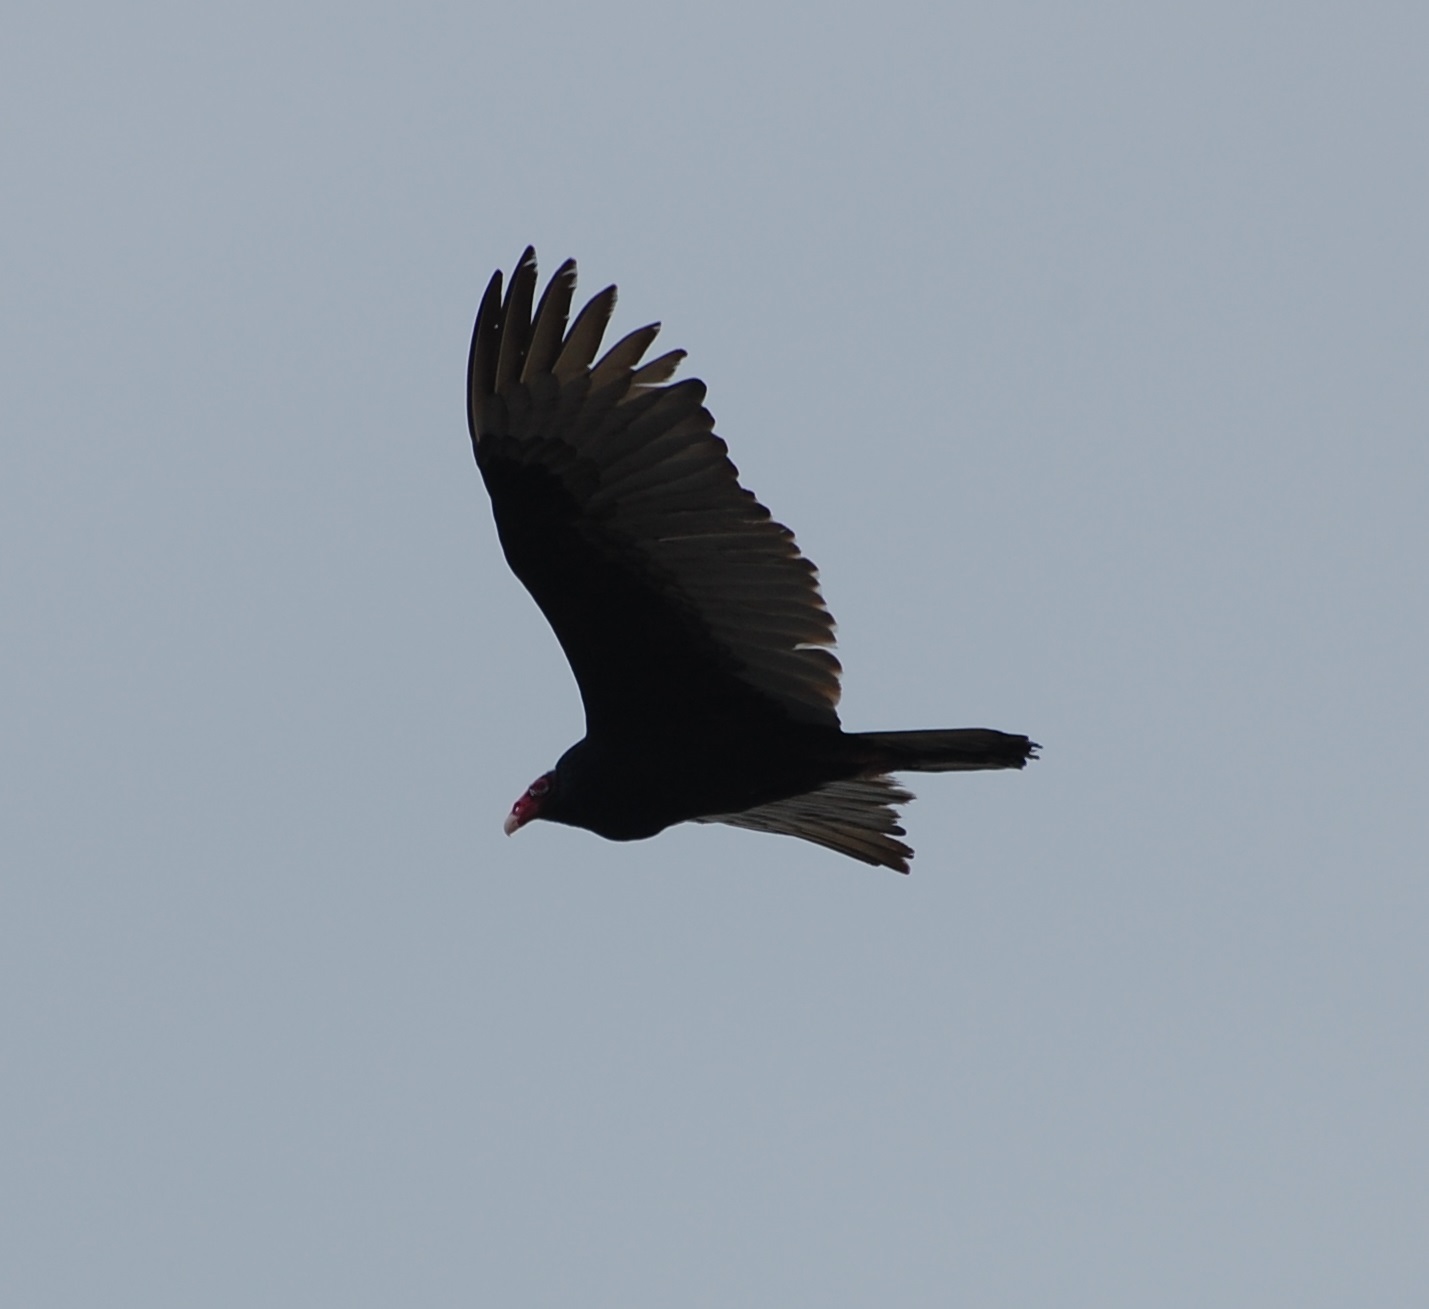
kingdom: Animalia
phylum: Chordata
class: Aves
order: Accipitriformes
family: Cathartidae
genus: Cathartes
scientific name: Cathartes aura
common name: Turkey vulture
